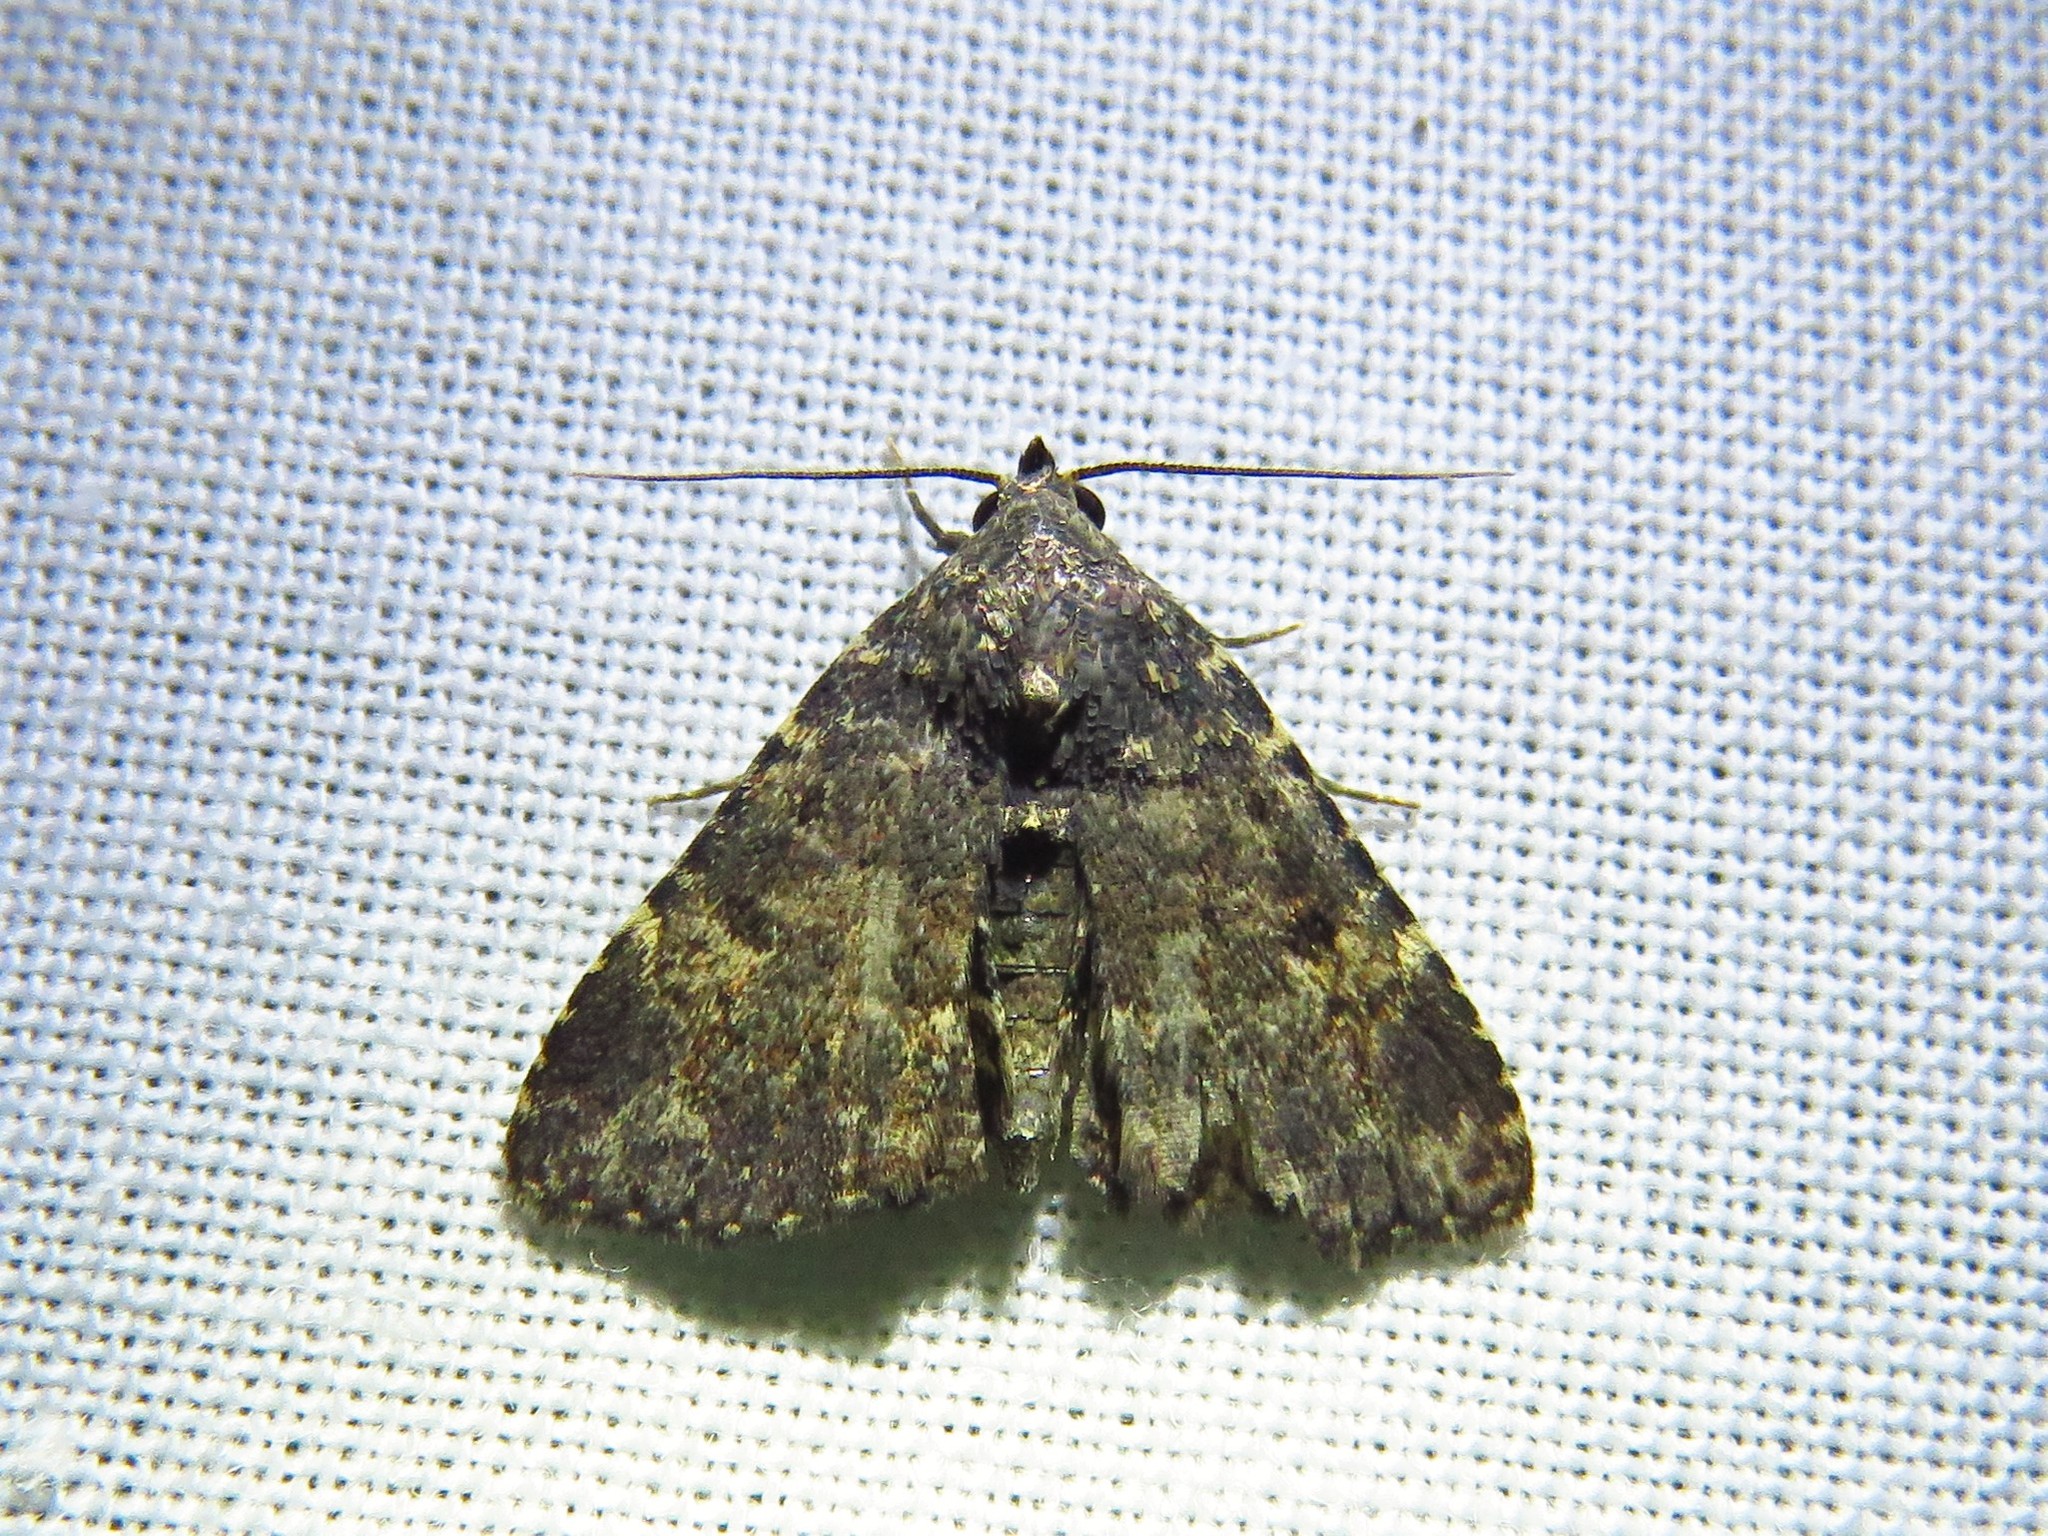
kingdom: Animalia
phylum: Arthropoda
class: Insecta
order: Lepidoptera
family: Erebidae
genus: Metalectra
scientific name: Metalectra miserulata
